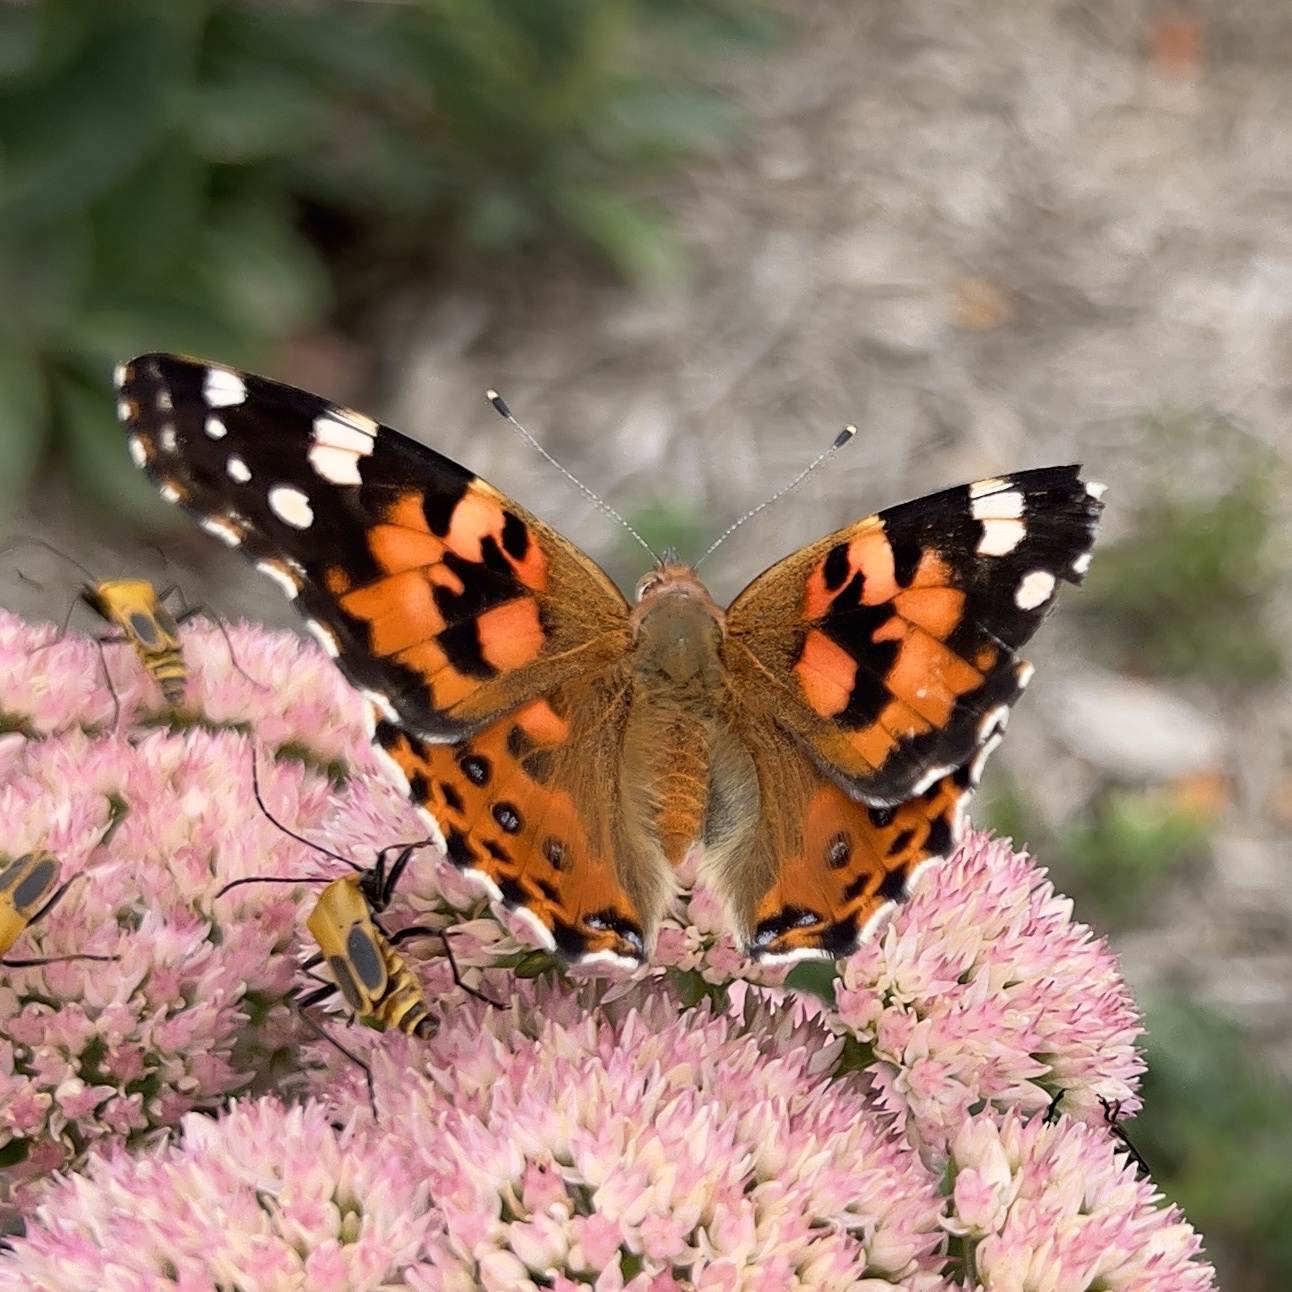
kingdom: Animalia
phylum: Arthropoda
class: Insecta
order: Lepidoptera
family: Nymphalidae
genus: Vanessa
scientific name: Vanessa cardui
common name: Painted lady
